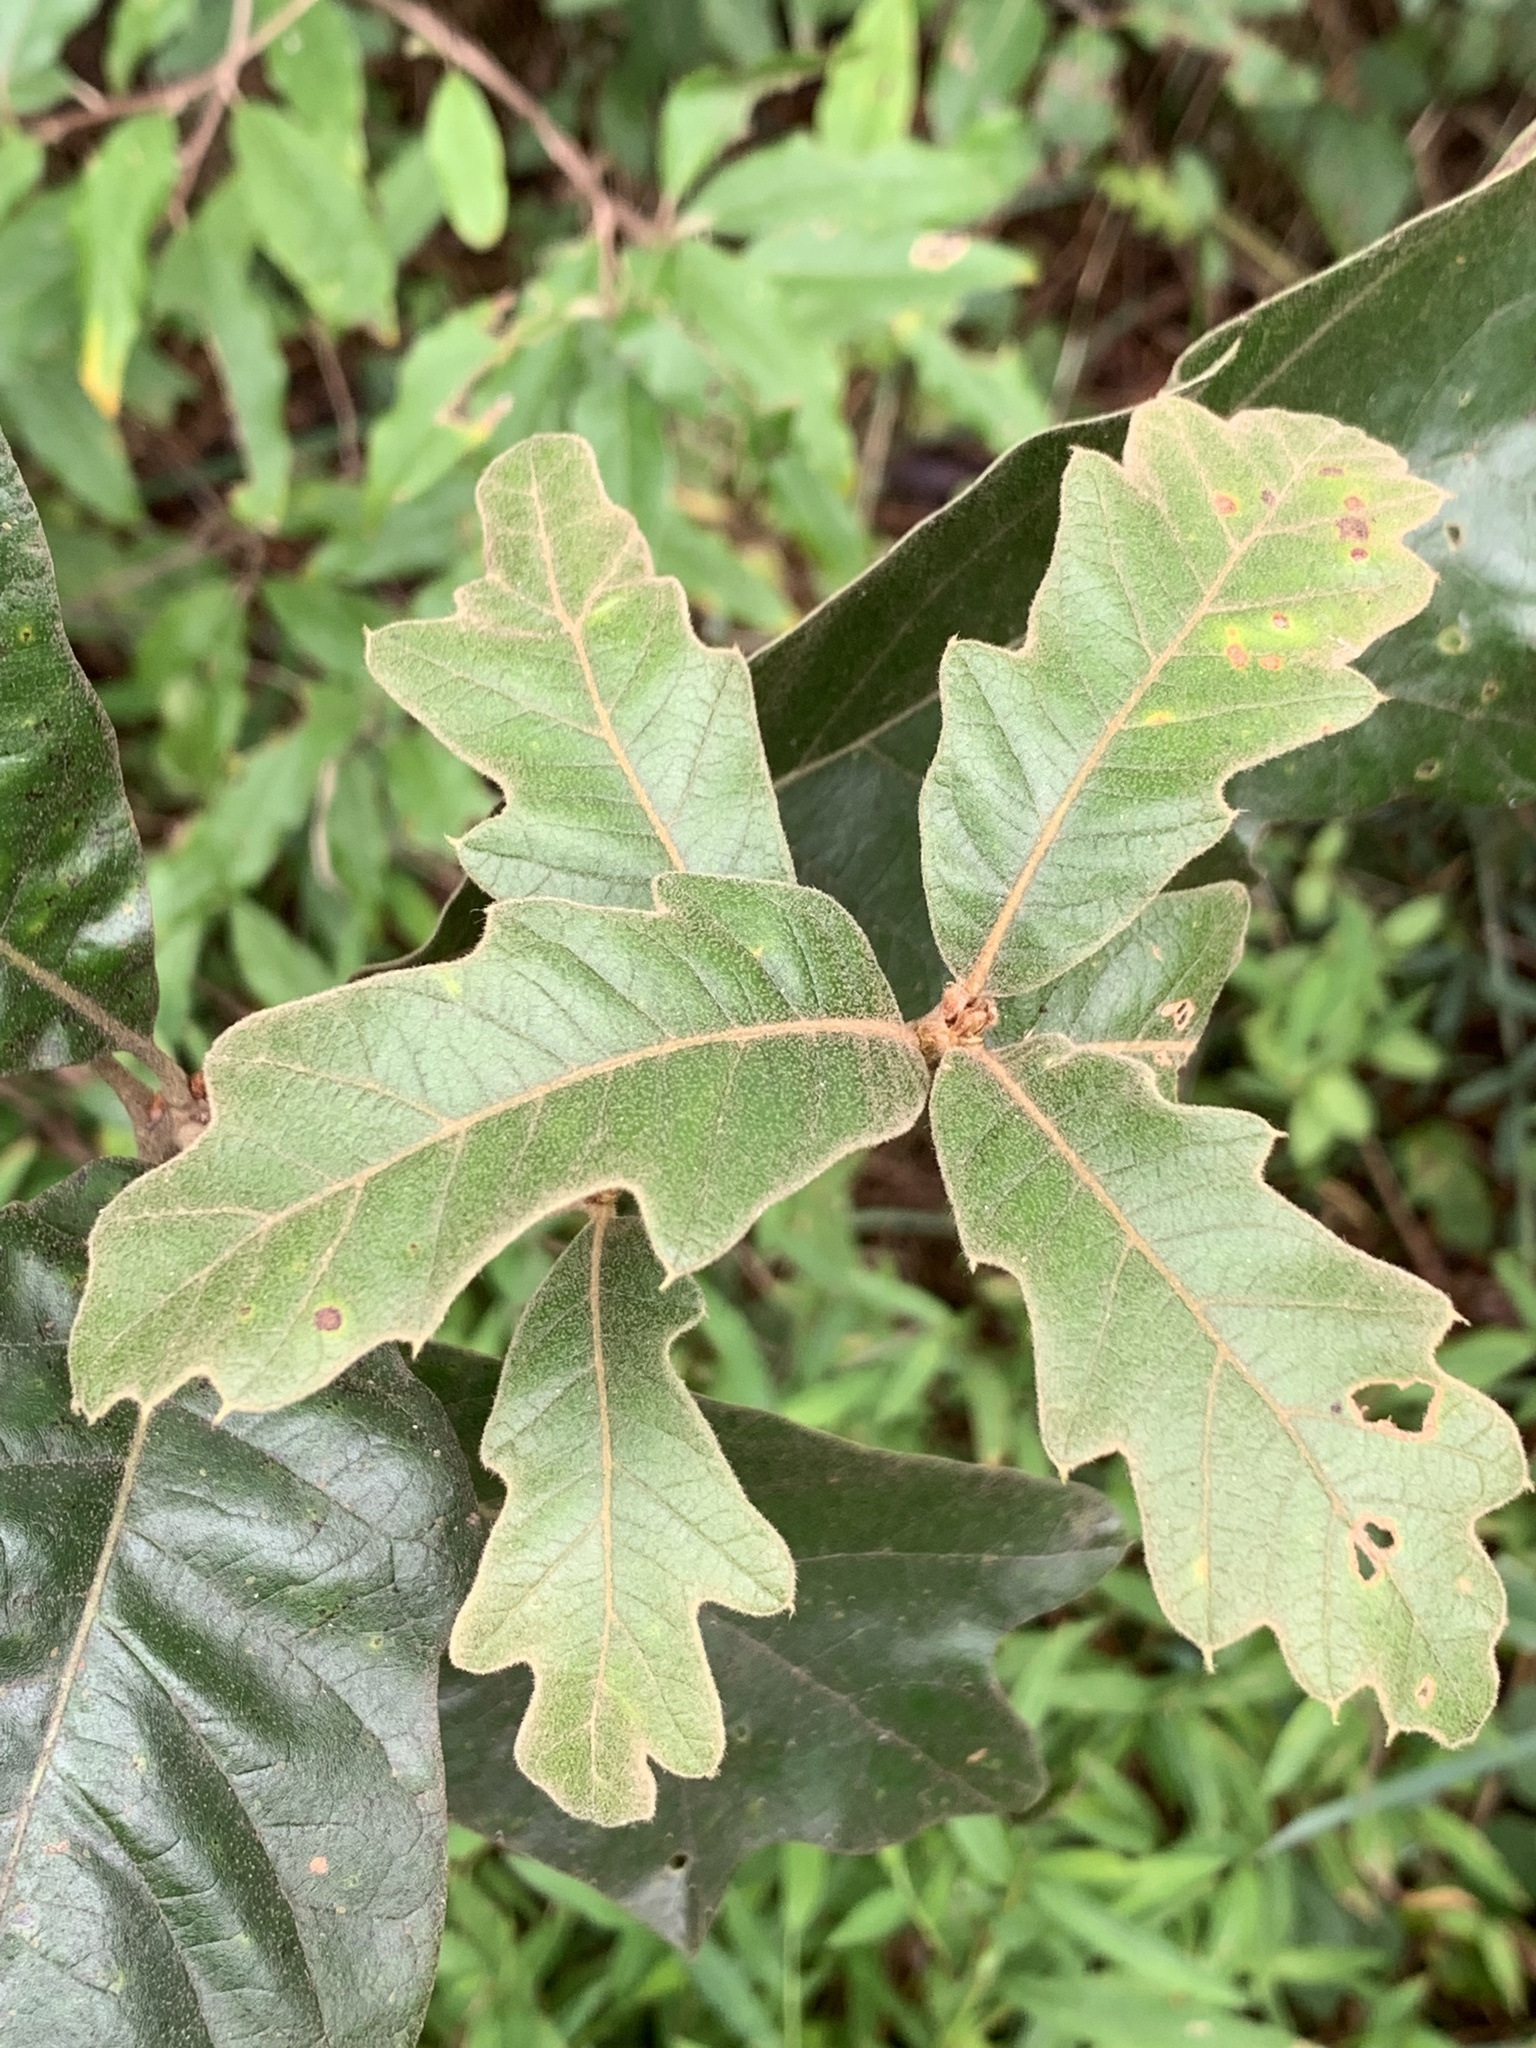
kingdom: Plantae
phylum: Tracheophyta
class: Magnoliopsida
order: Fagales
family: Fagaceae
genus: Quercus
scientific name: Quercus falcata
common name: Southern red oak
